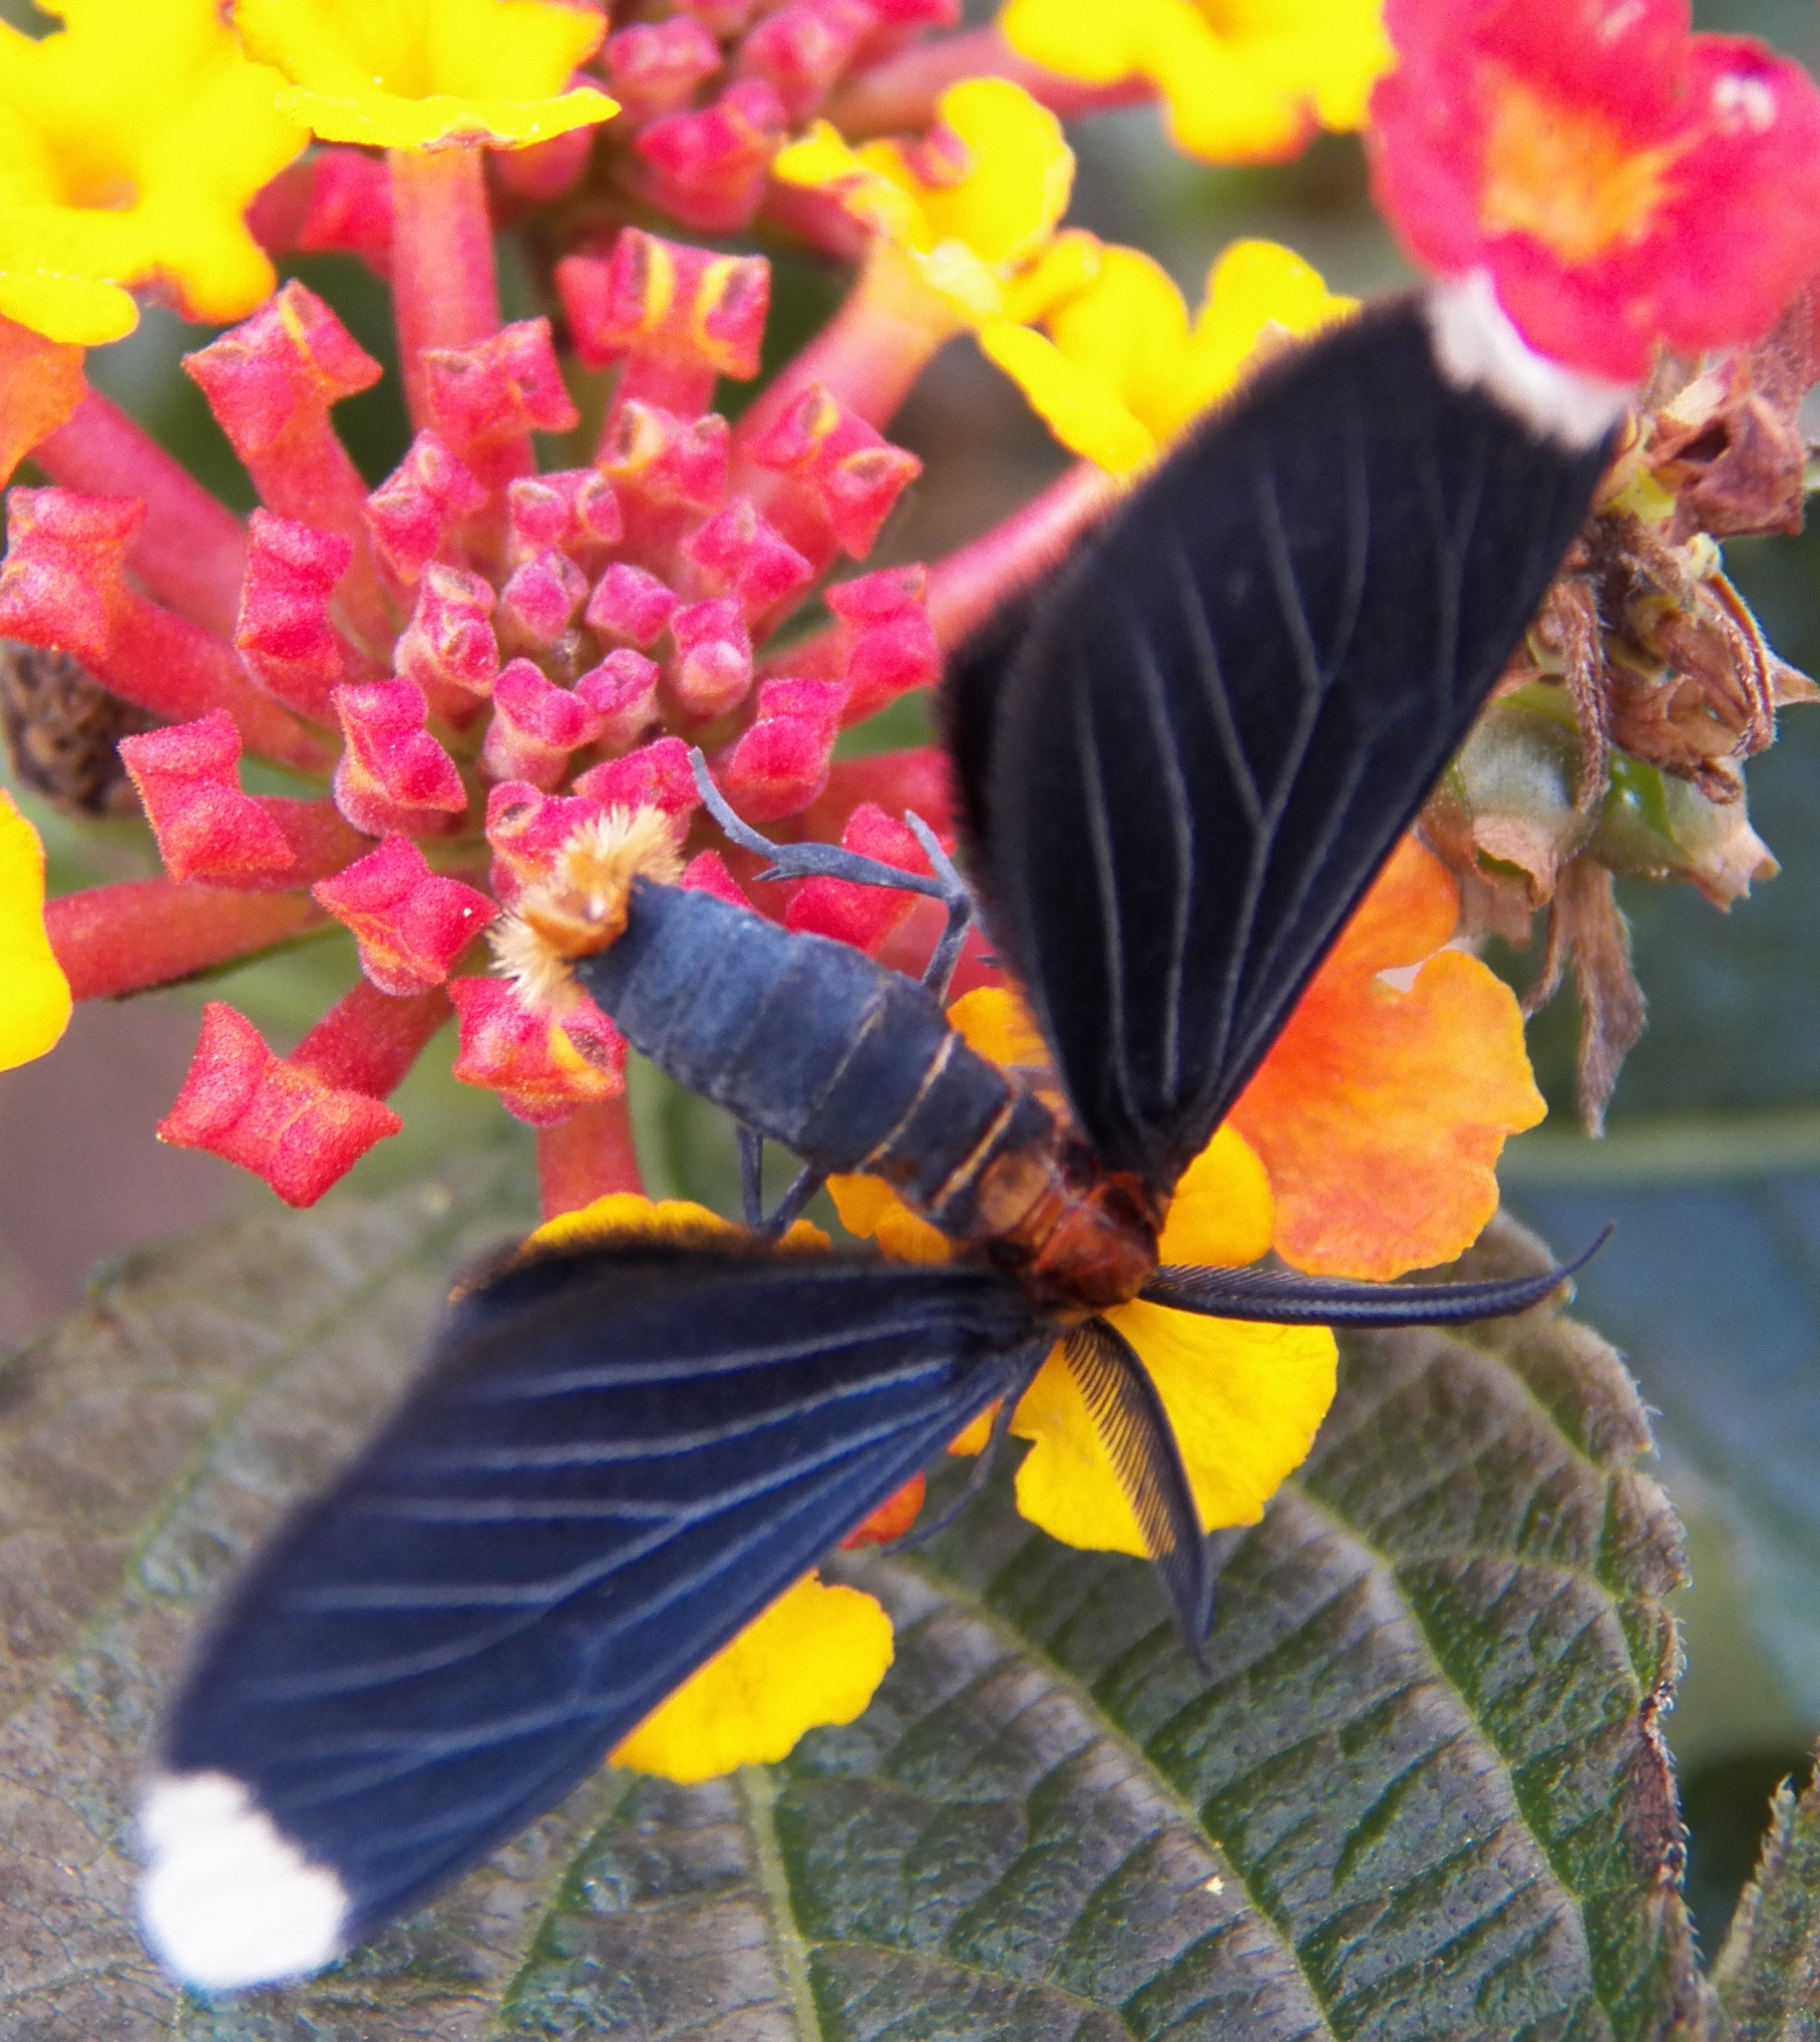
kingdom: Animalia
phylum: Arthropoda
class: Insecta
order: Lepidoptera
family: Geometridae
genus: Melanchroia
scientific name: Melanchroia chephise
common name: White-tipped black
